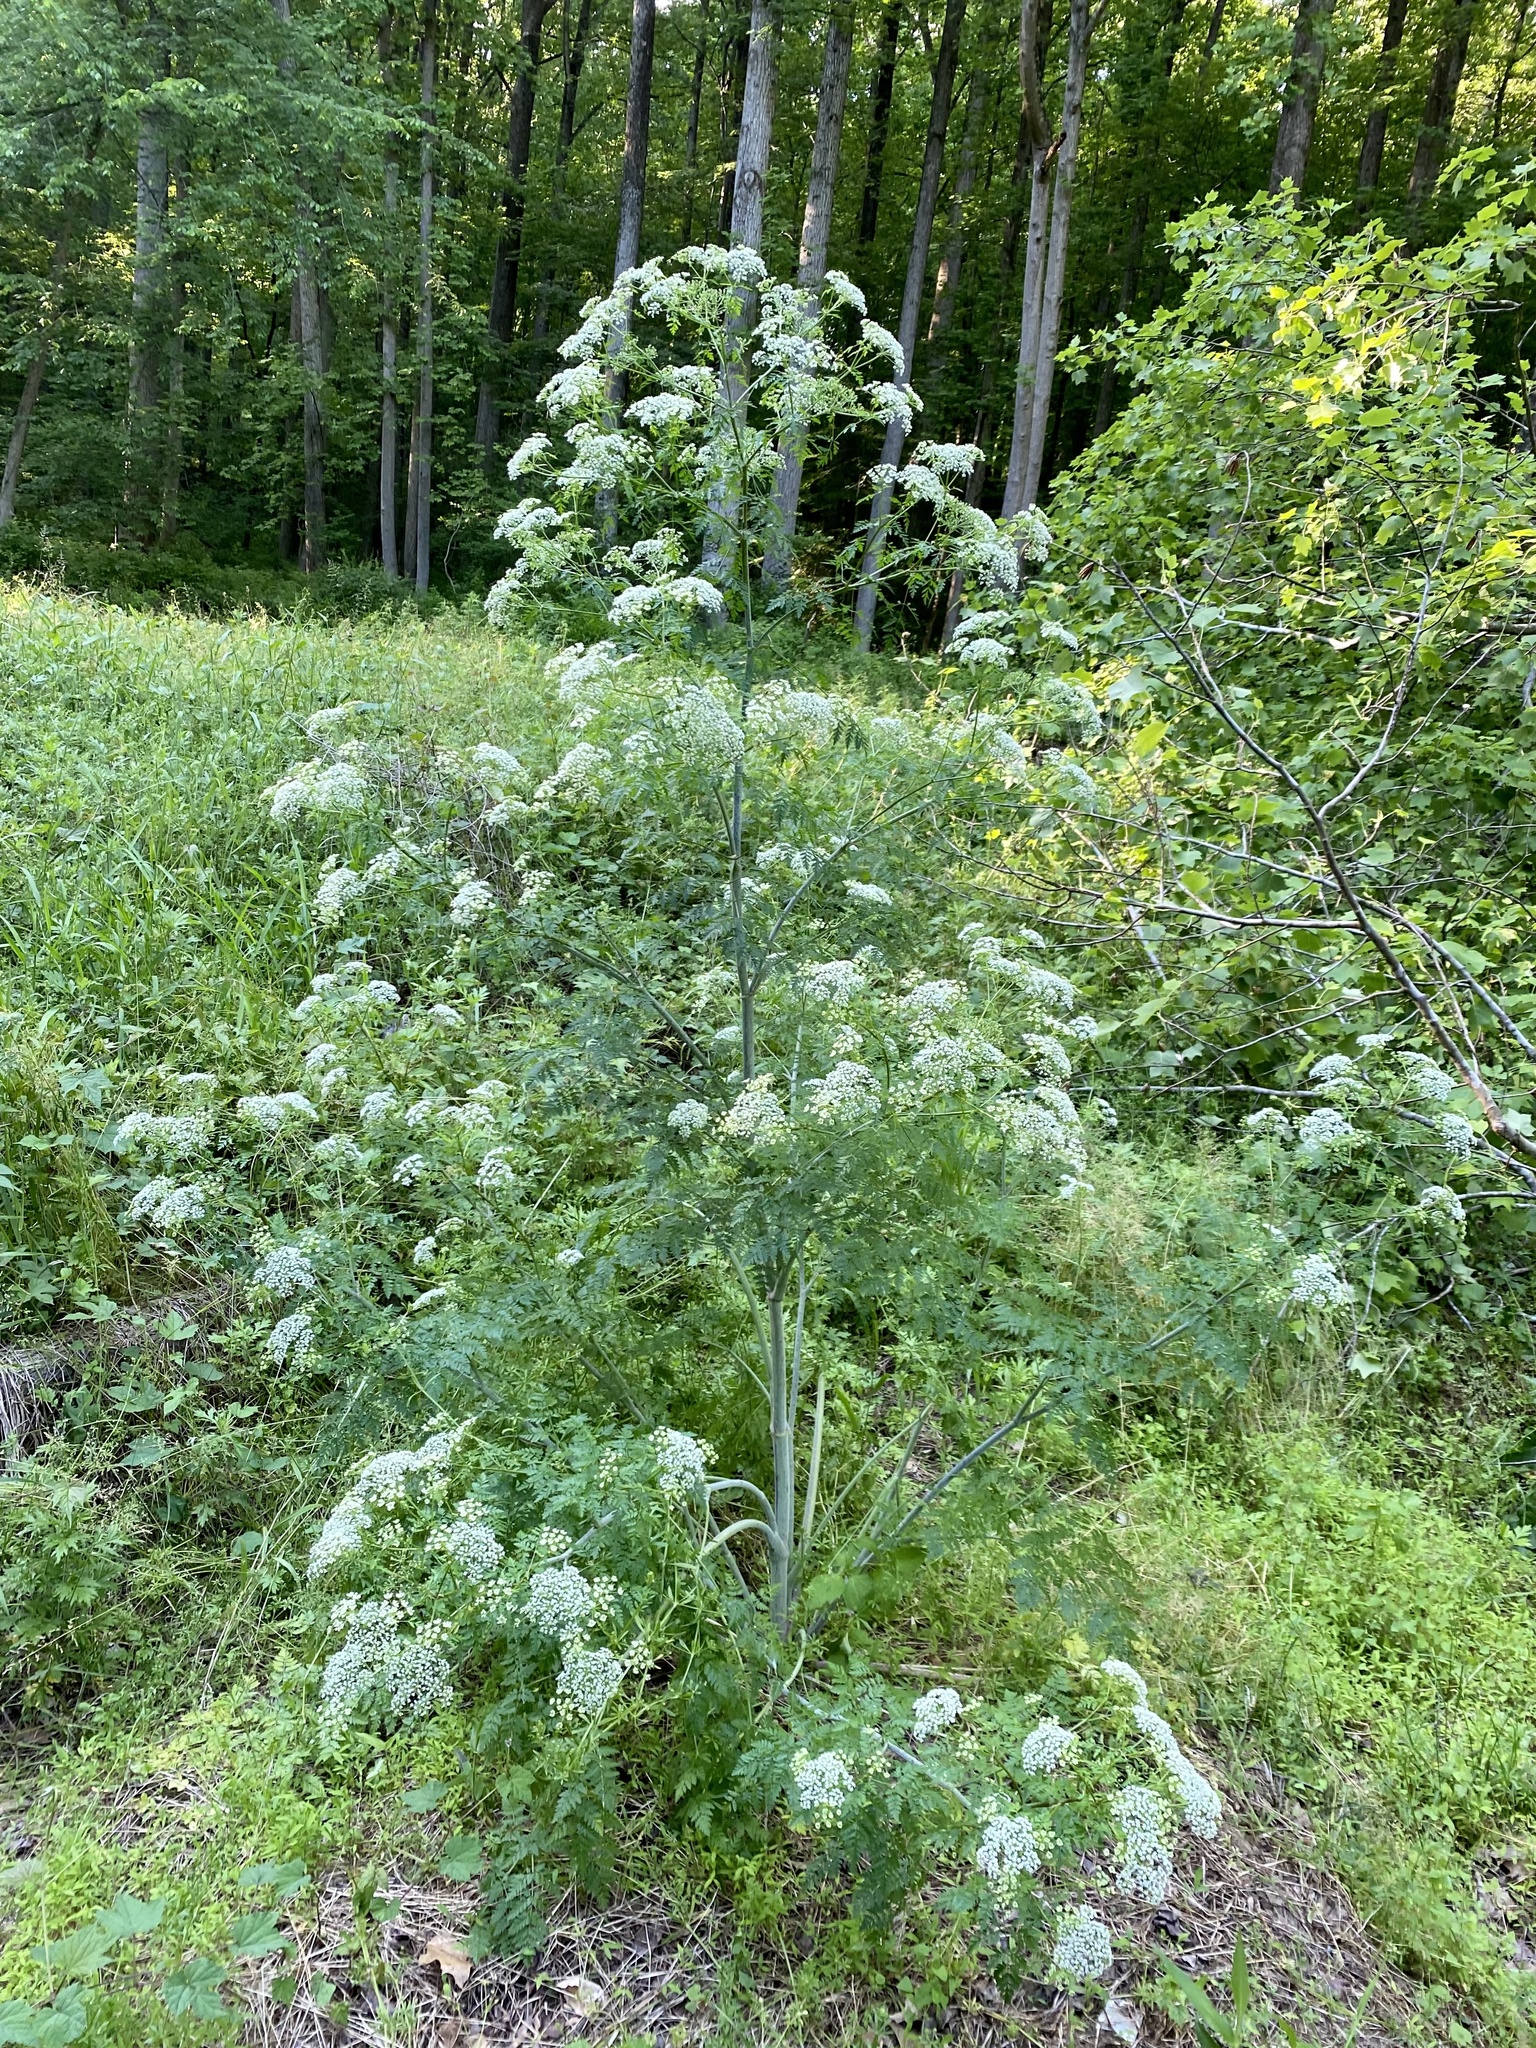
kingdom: Plantae
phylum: Tracheophyta
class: Magnoliopsida
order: Apiales
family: Apiaceae
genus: Conium
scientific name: Conium maculatum
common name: Hemlock
